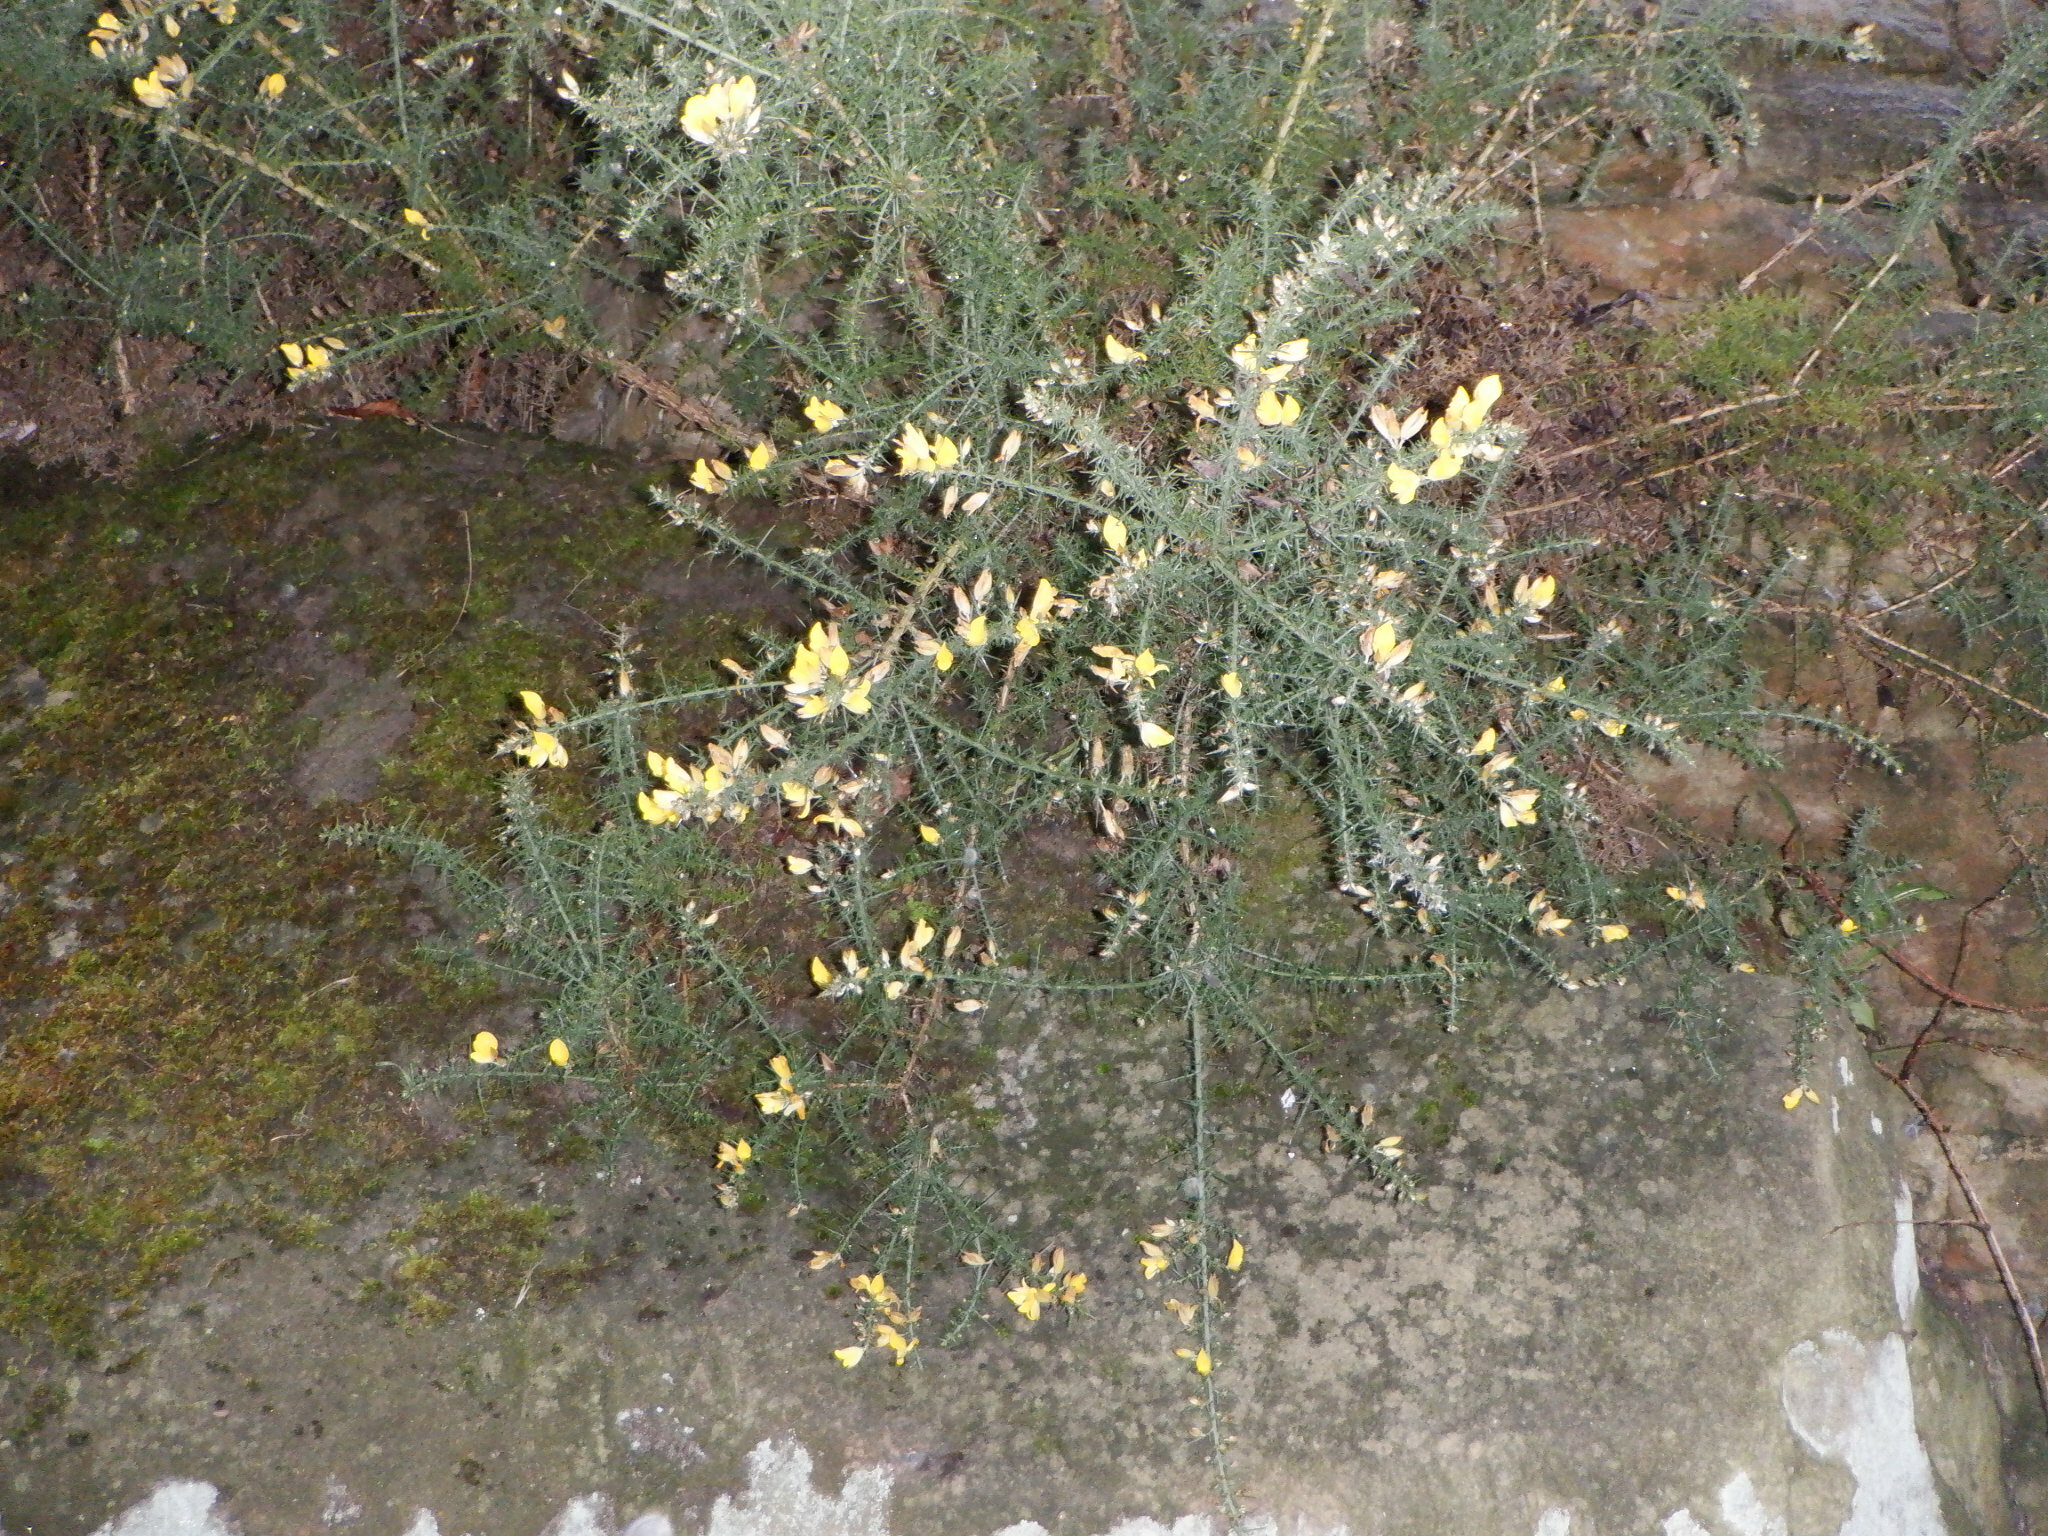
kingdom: Plantae
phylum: Tracheophyta
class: Magnoliopsida
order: Fabales
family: Fabaceae
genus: Ulex
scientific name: Ulex europaeus
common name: Common gorse
